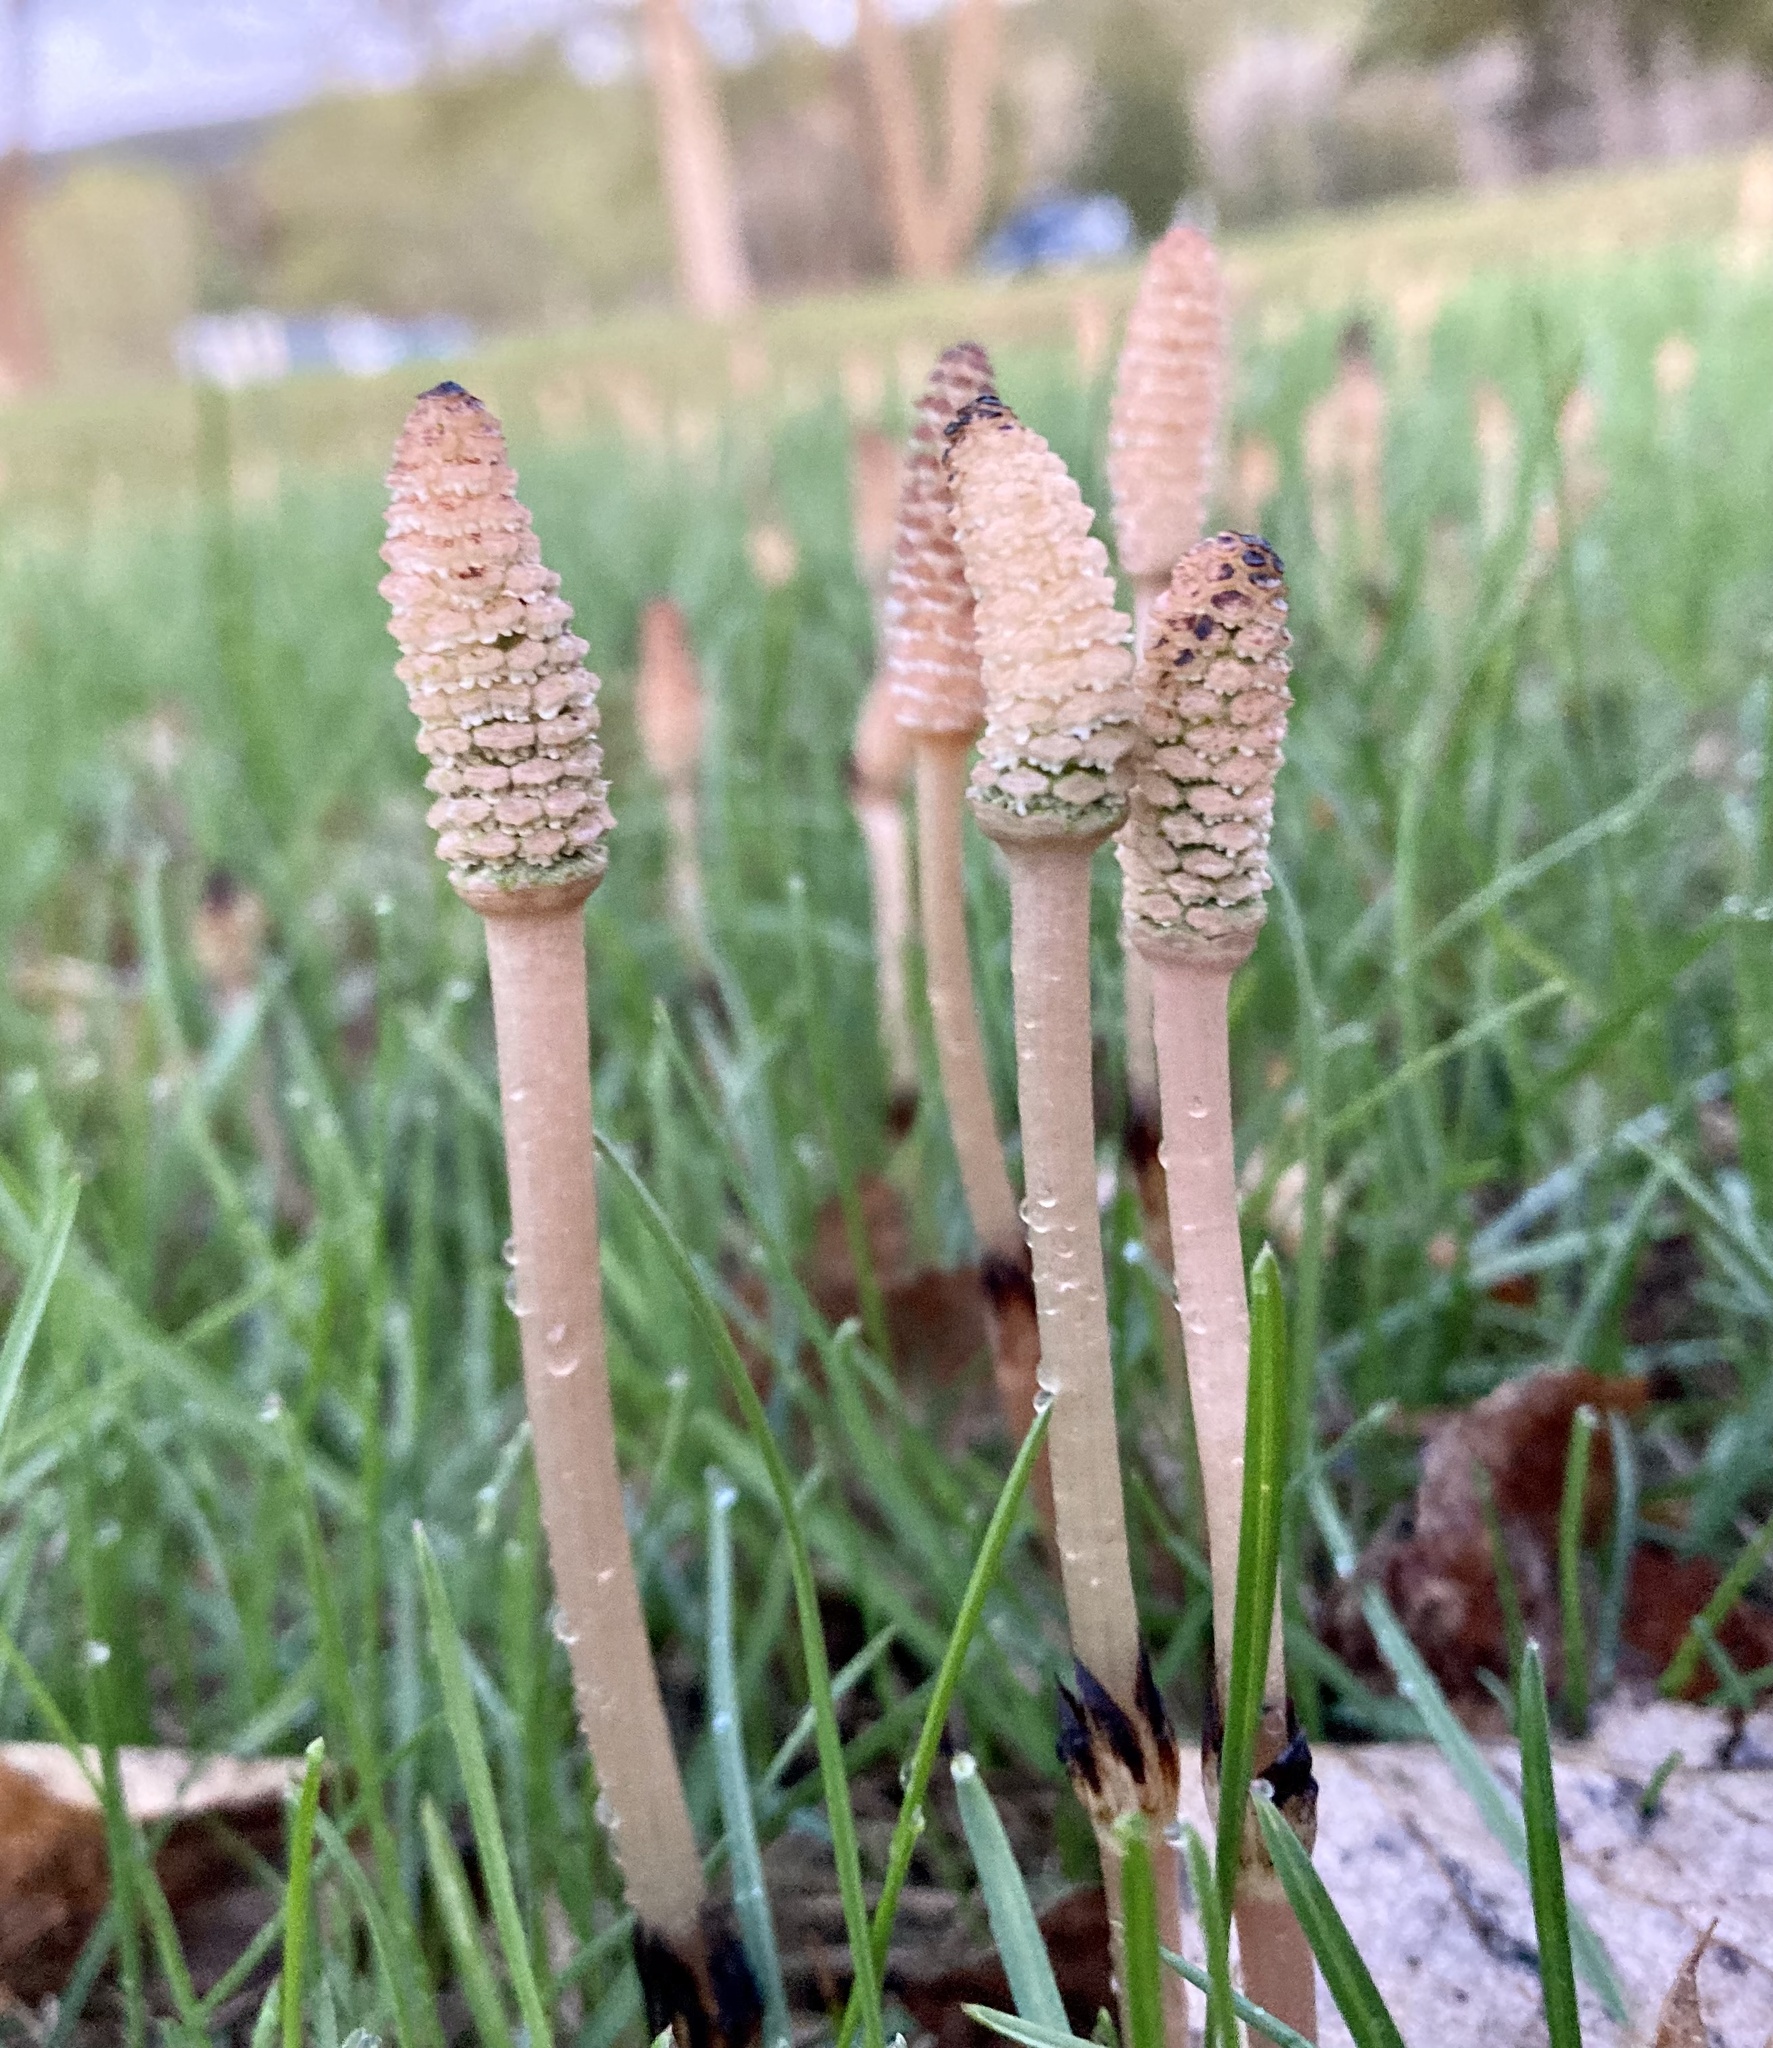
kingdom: Plantae
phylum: Tracheophyta
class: Polypodiopsida
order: Equisetales
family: Equisetaceae
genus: Equisetum
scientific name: Equisetum arvense
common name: Field horsetail
